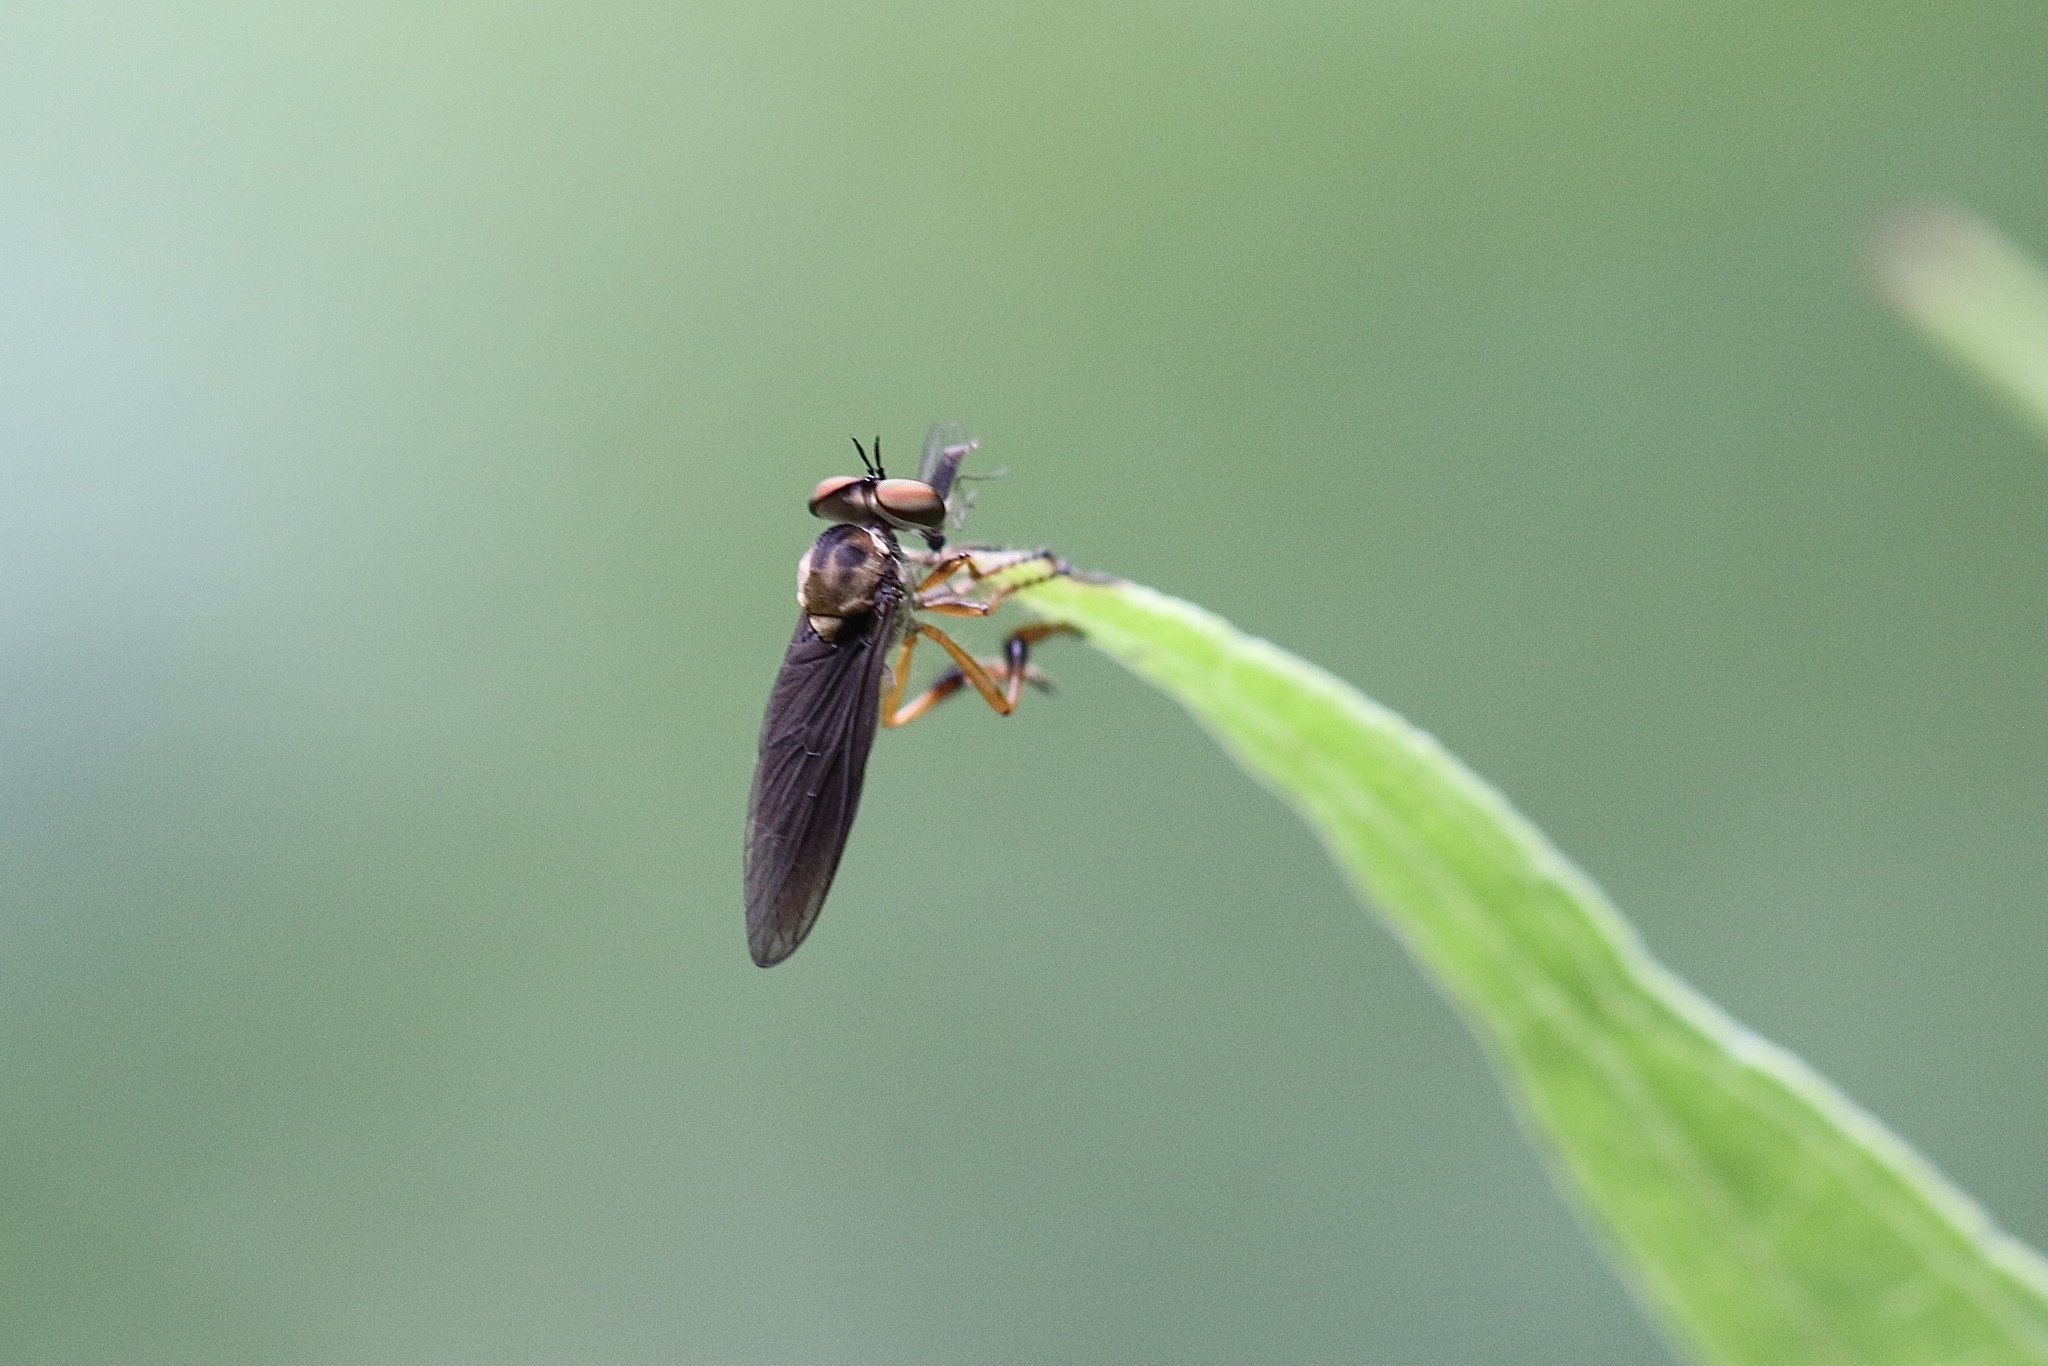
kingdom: Animalia
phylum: Arthropoda
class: Insecta
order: Diptera
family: Asilidae
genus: Holcocephala
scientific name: Holcocephala
